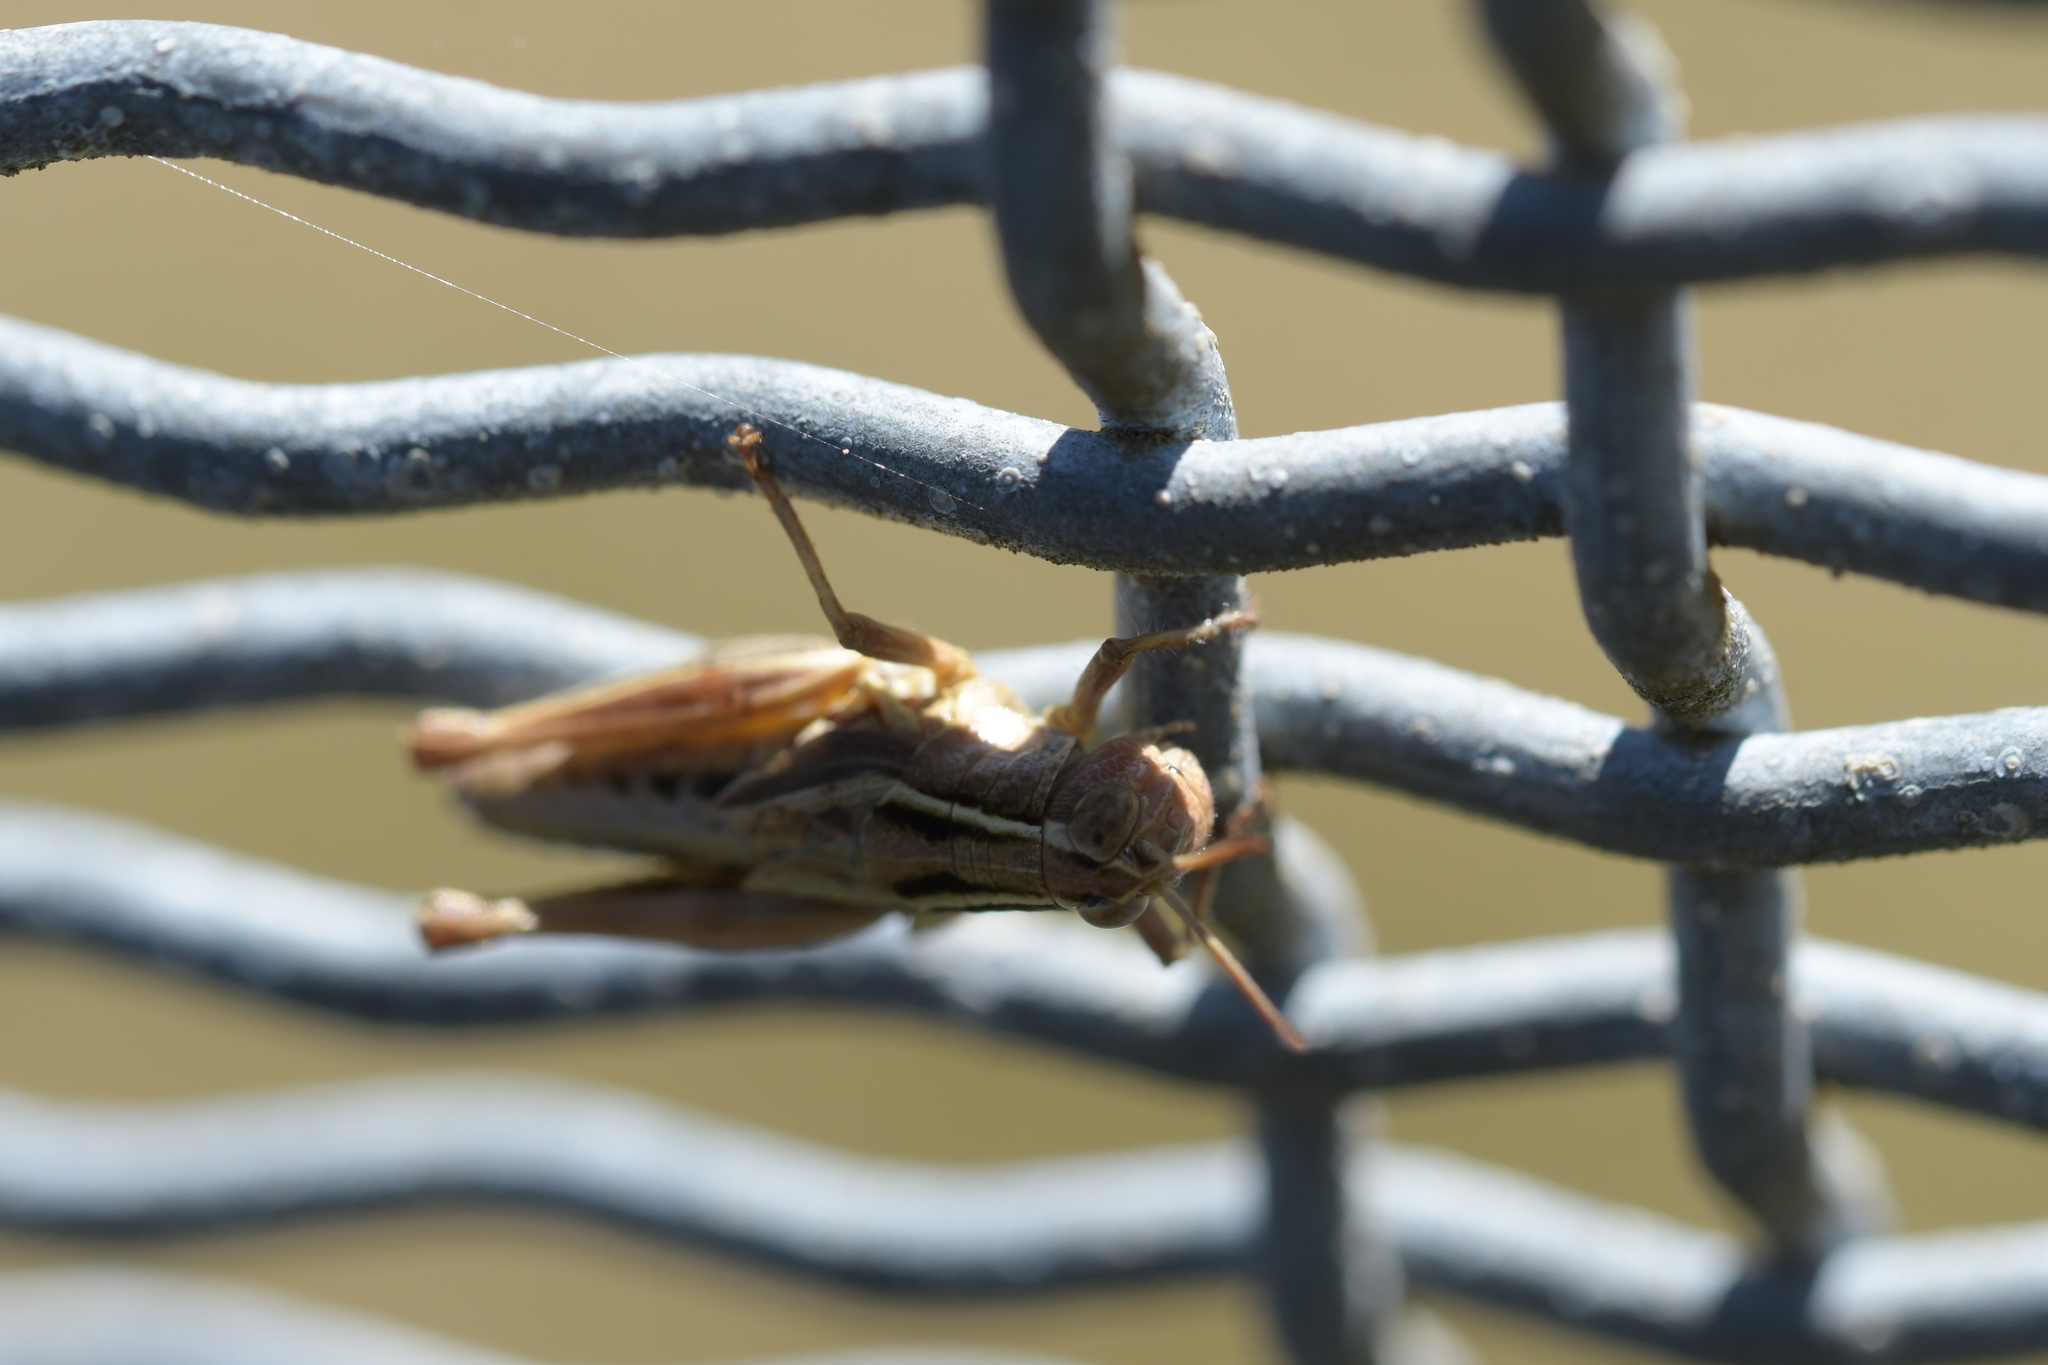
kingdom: Animalia
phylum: Arthropoda
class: Insecta
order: Orthoptera
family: Acrididae
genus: Phaulacridium
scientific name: Phaulacridium marginale
